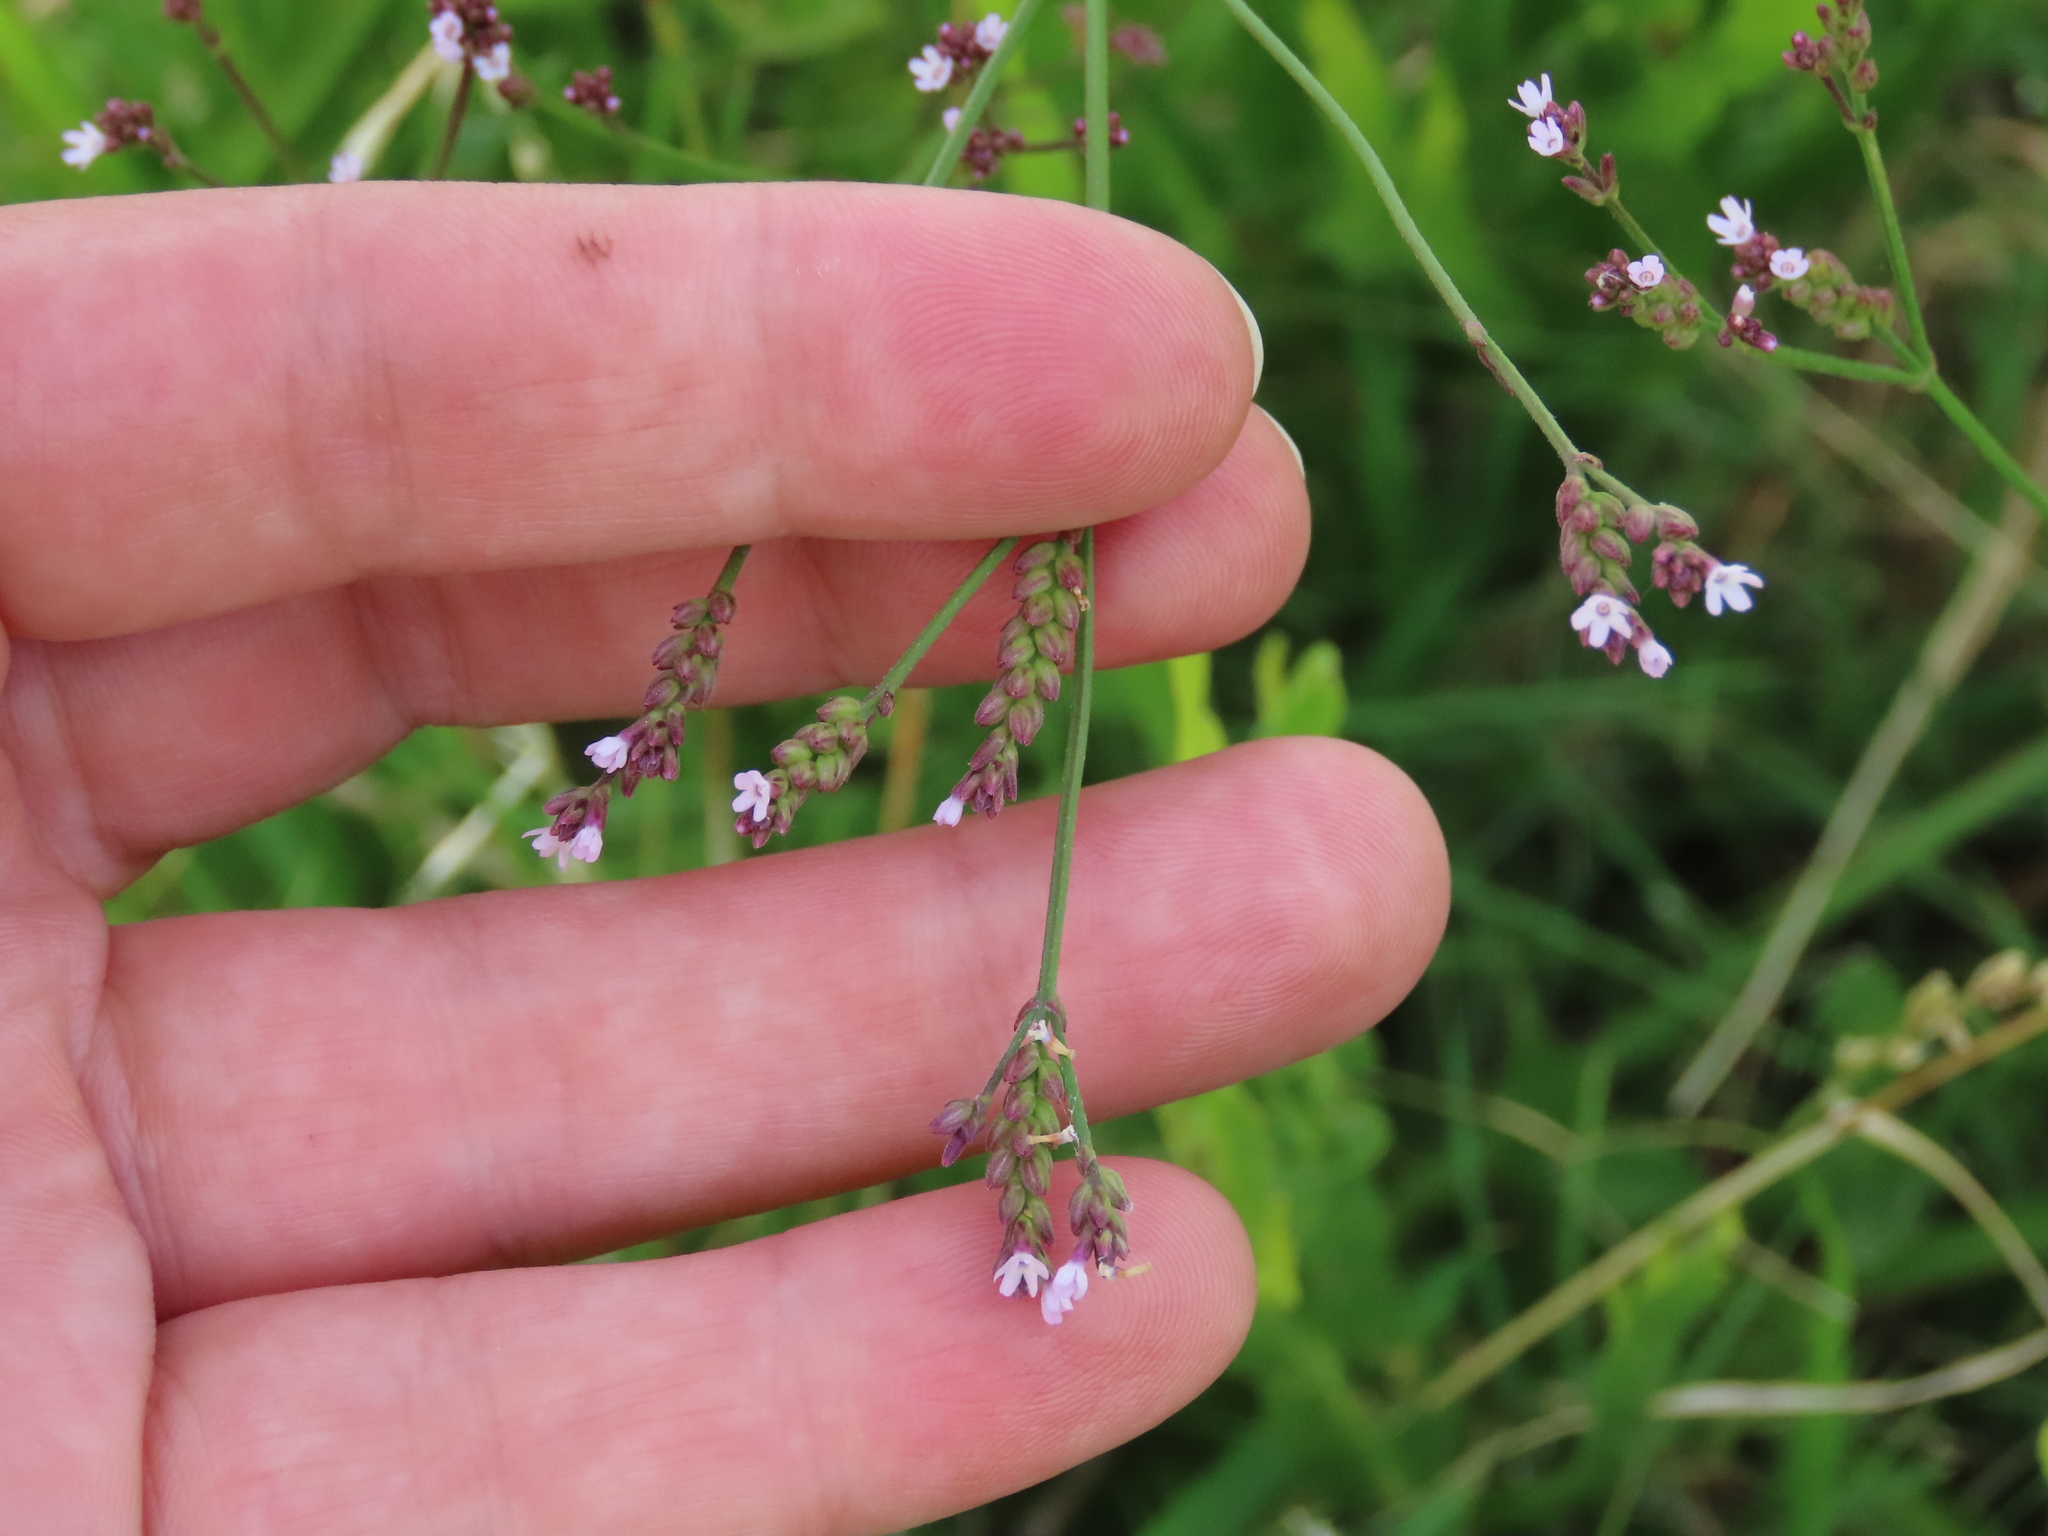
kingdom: Plantae
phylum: Tracheophyta
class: Magnoliopsida
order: Lamiales
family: Verbenaceae
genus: Verbena
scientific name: Verbena montevidensis
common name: Uruguayan vervain
